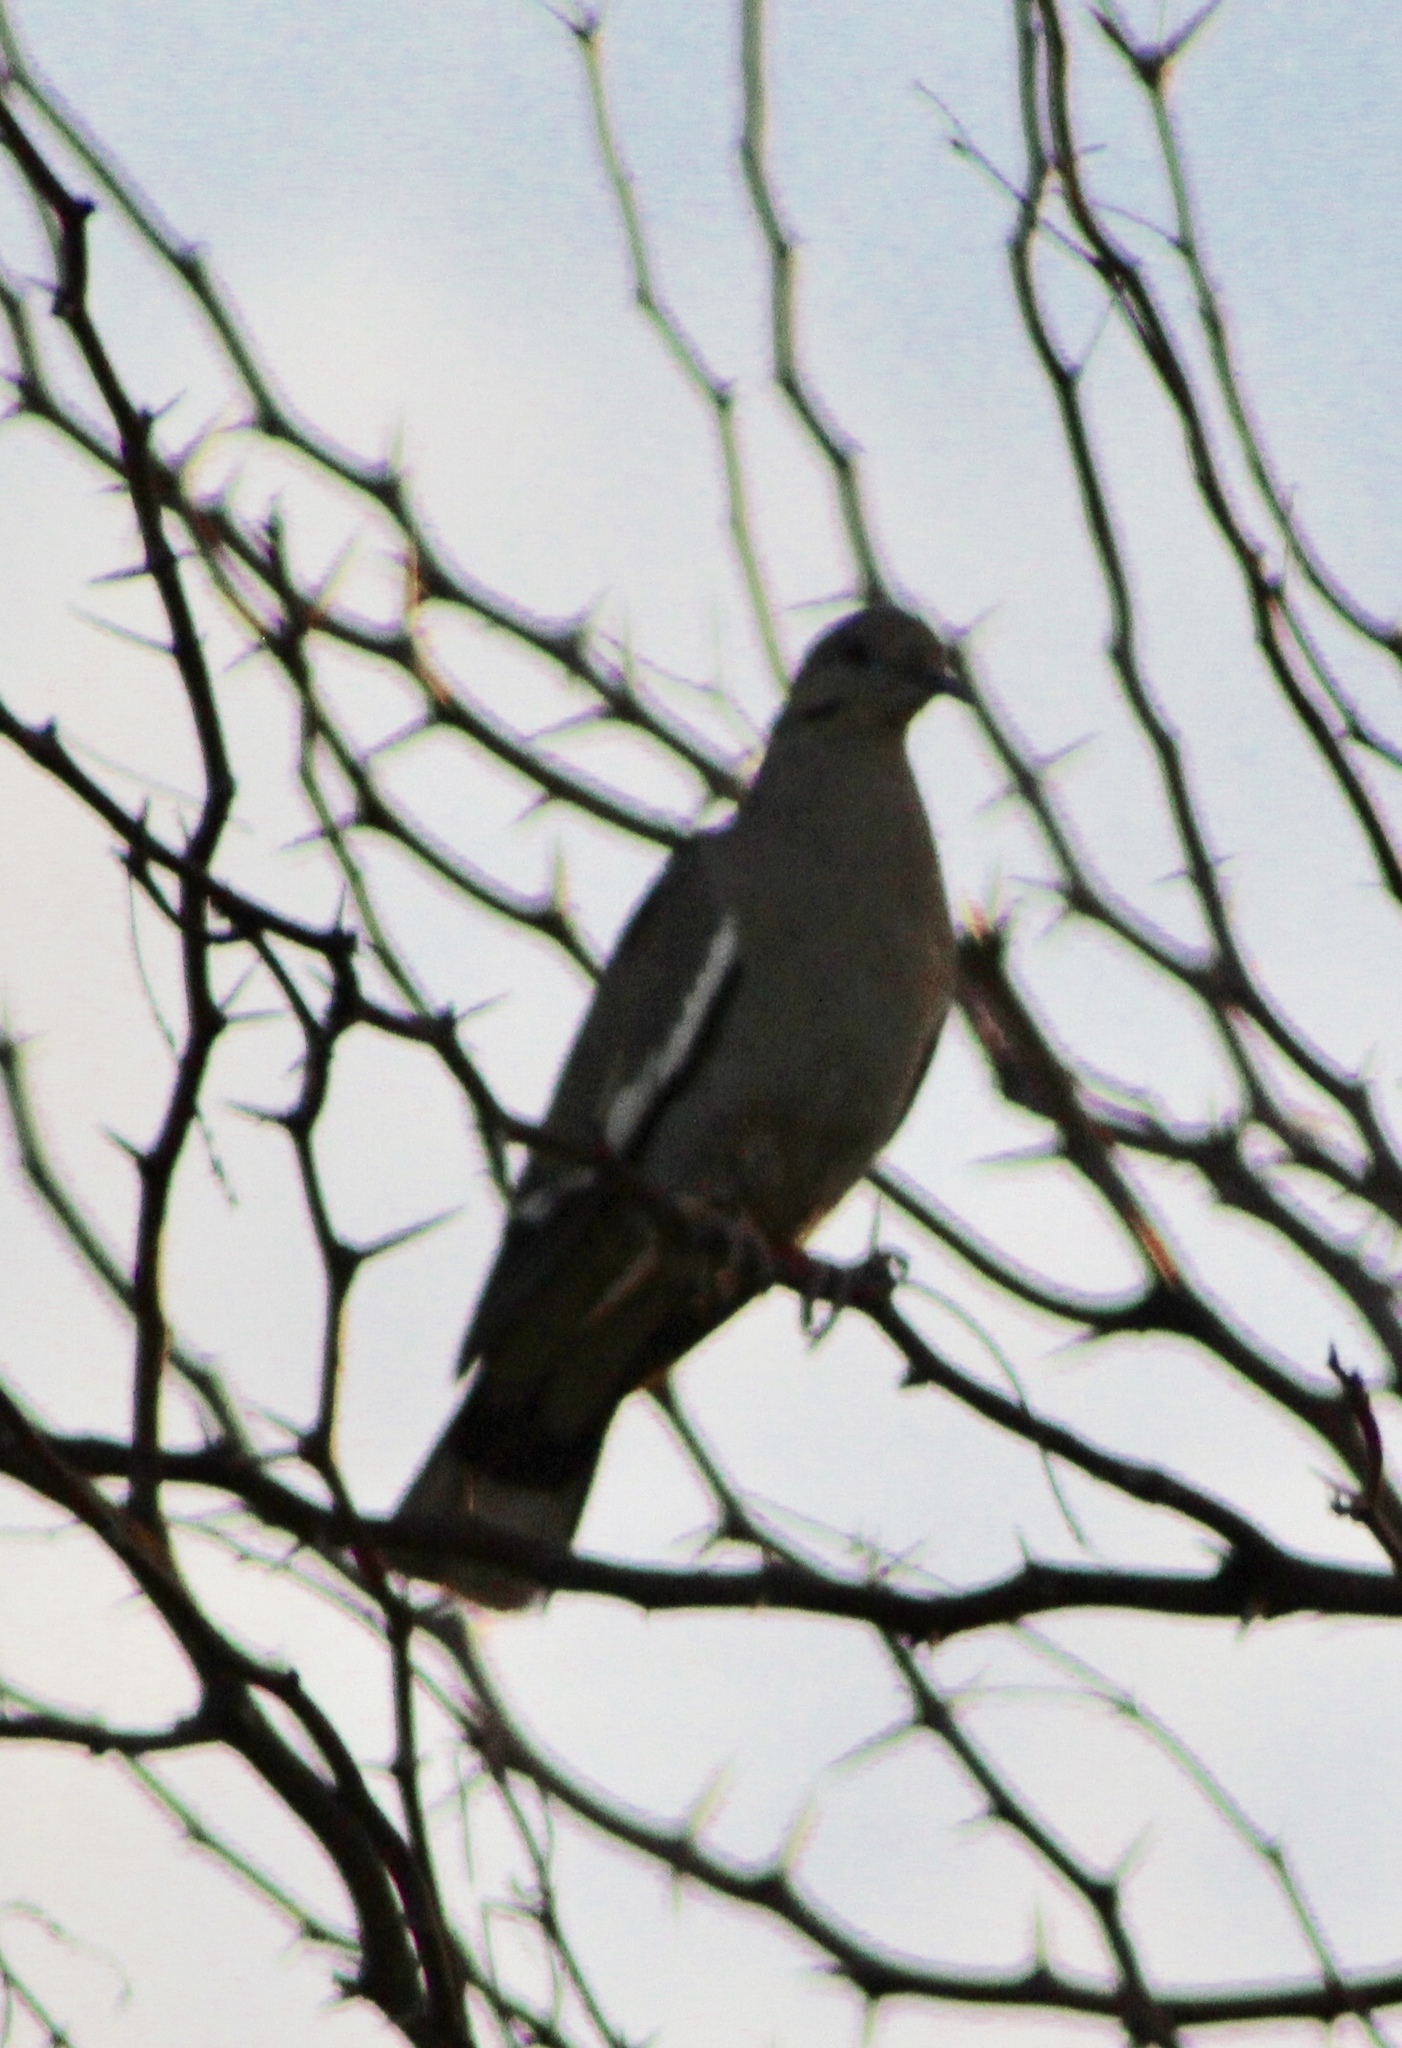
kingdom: Animalia
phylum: Chordata
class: Aves
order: Columbiformes
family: Columbidae
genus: Zenaida
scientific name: Zenaida asiatica
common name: White-winged dove
